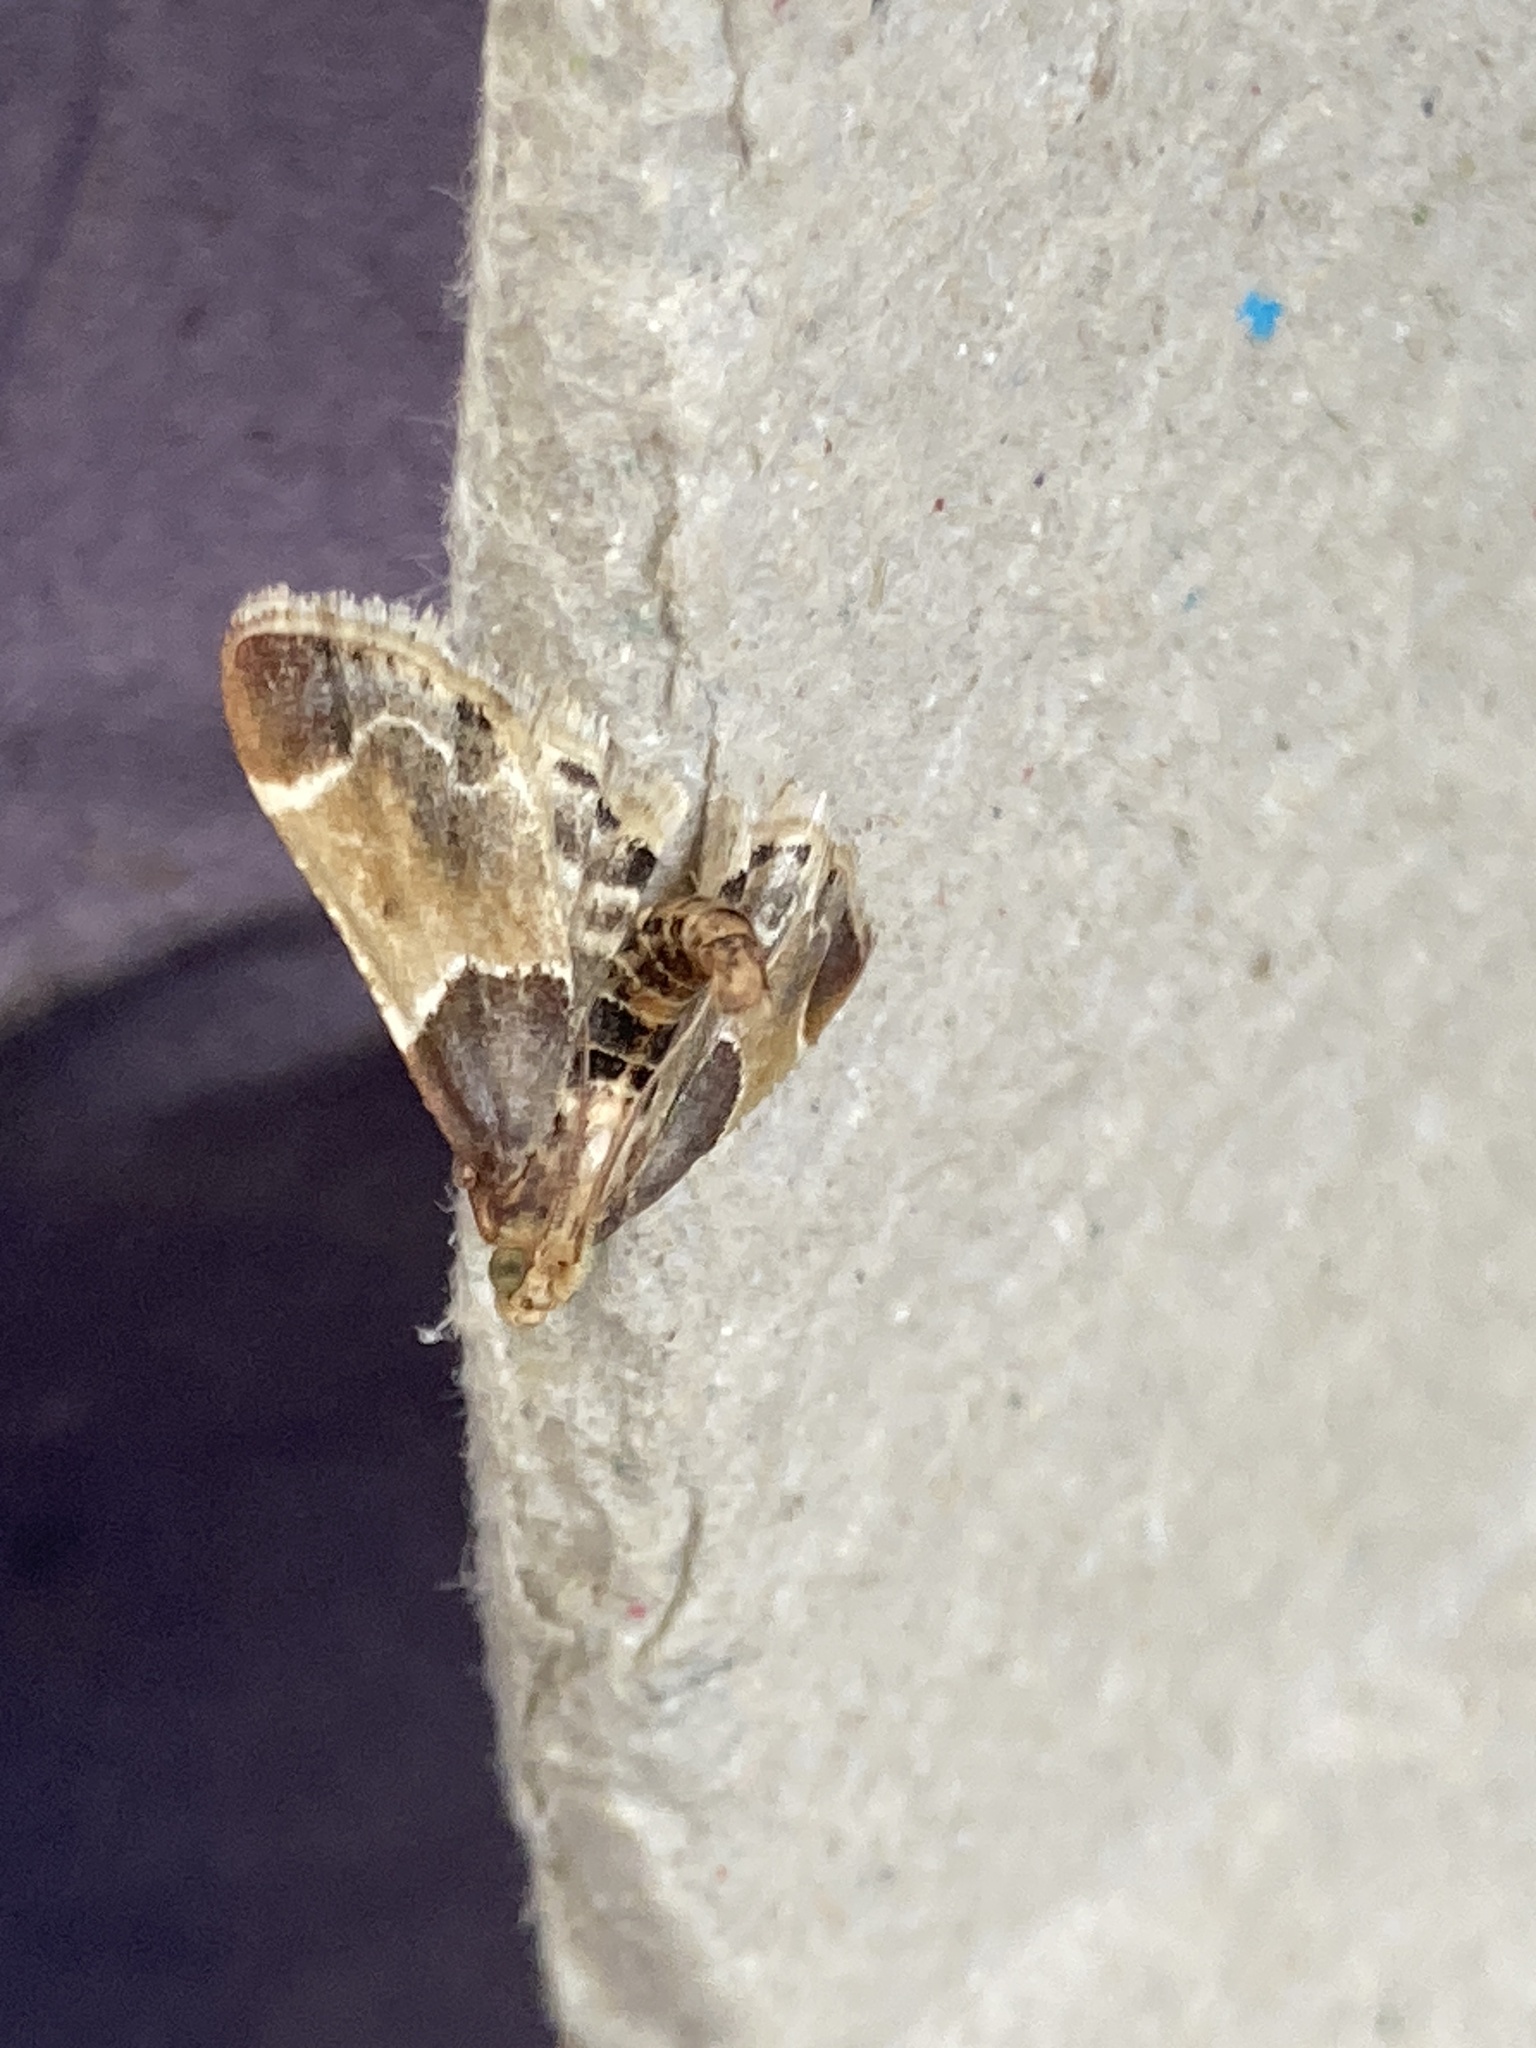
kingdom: Animalia
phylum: Arthropoda
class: Insecta
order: Lepidoptera
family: Pyralidae
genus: Pyralis
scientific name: Pyralis farinalis
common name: Meal moth
